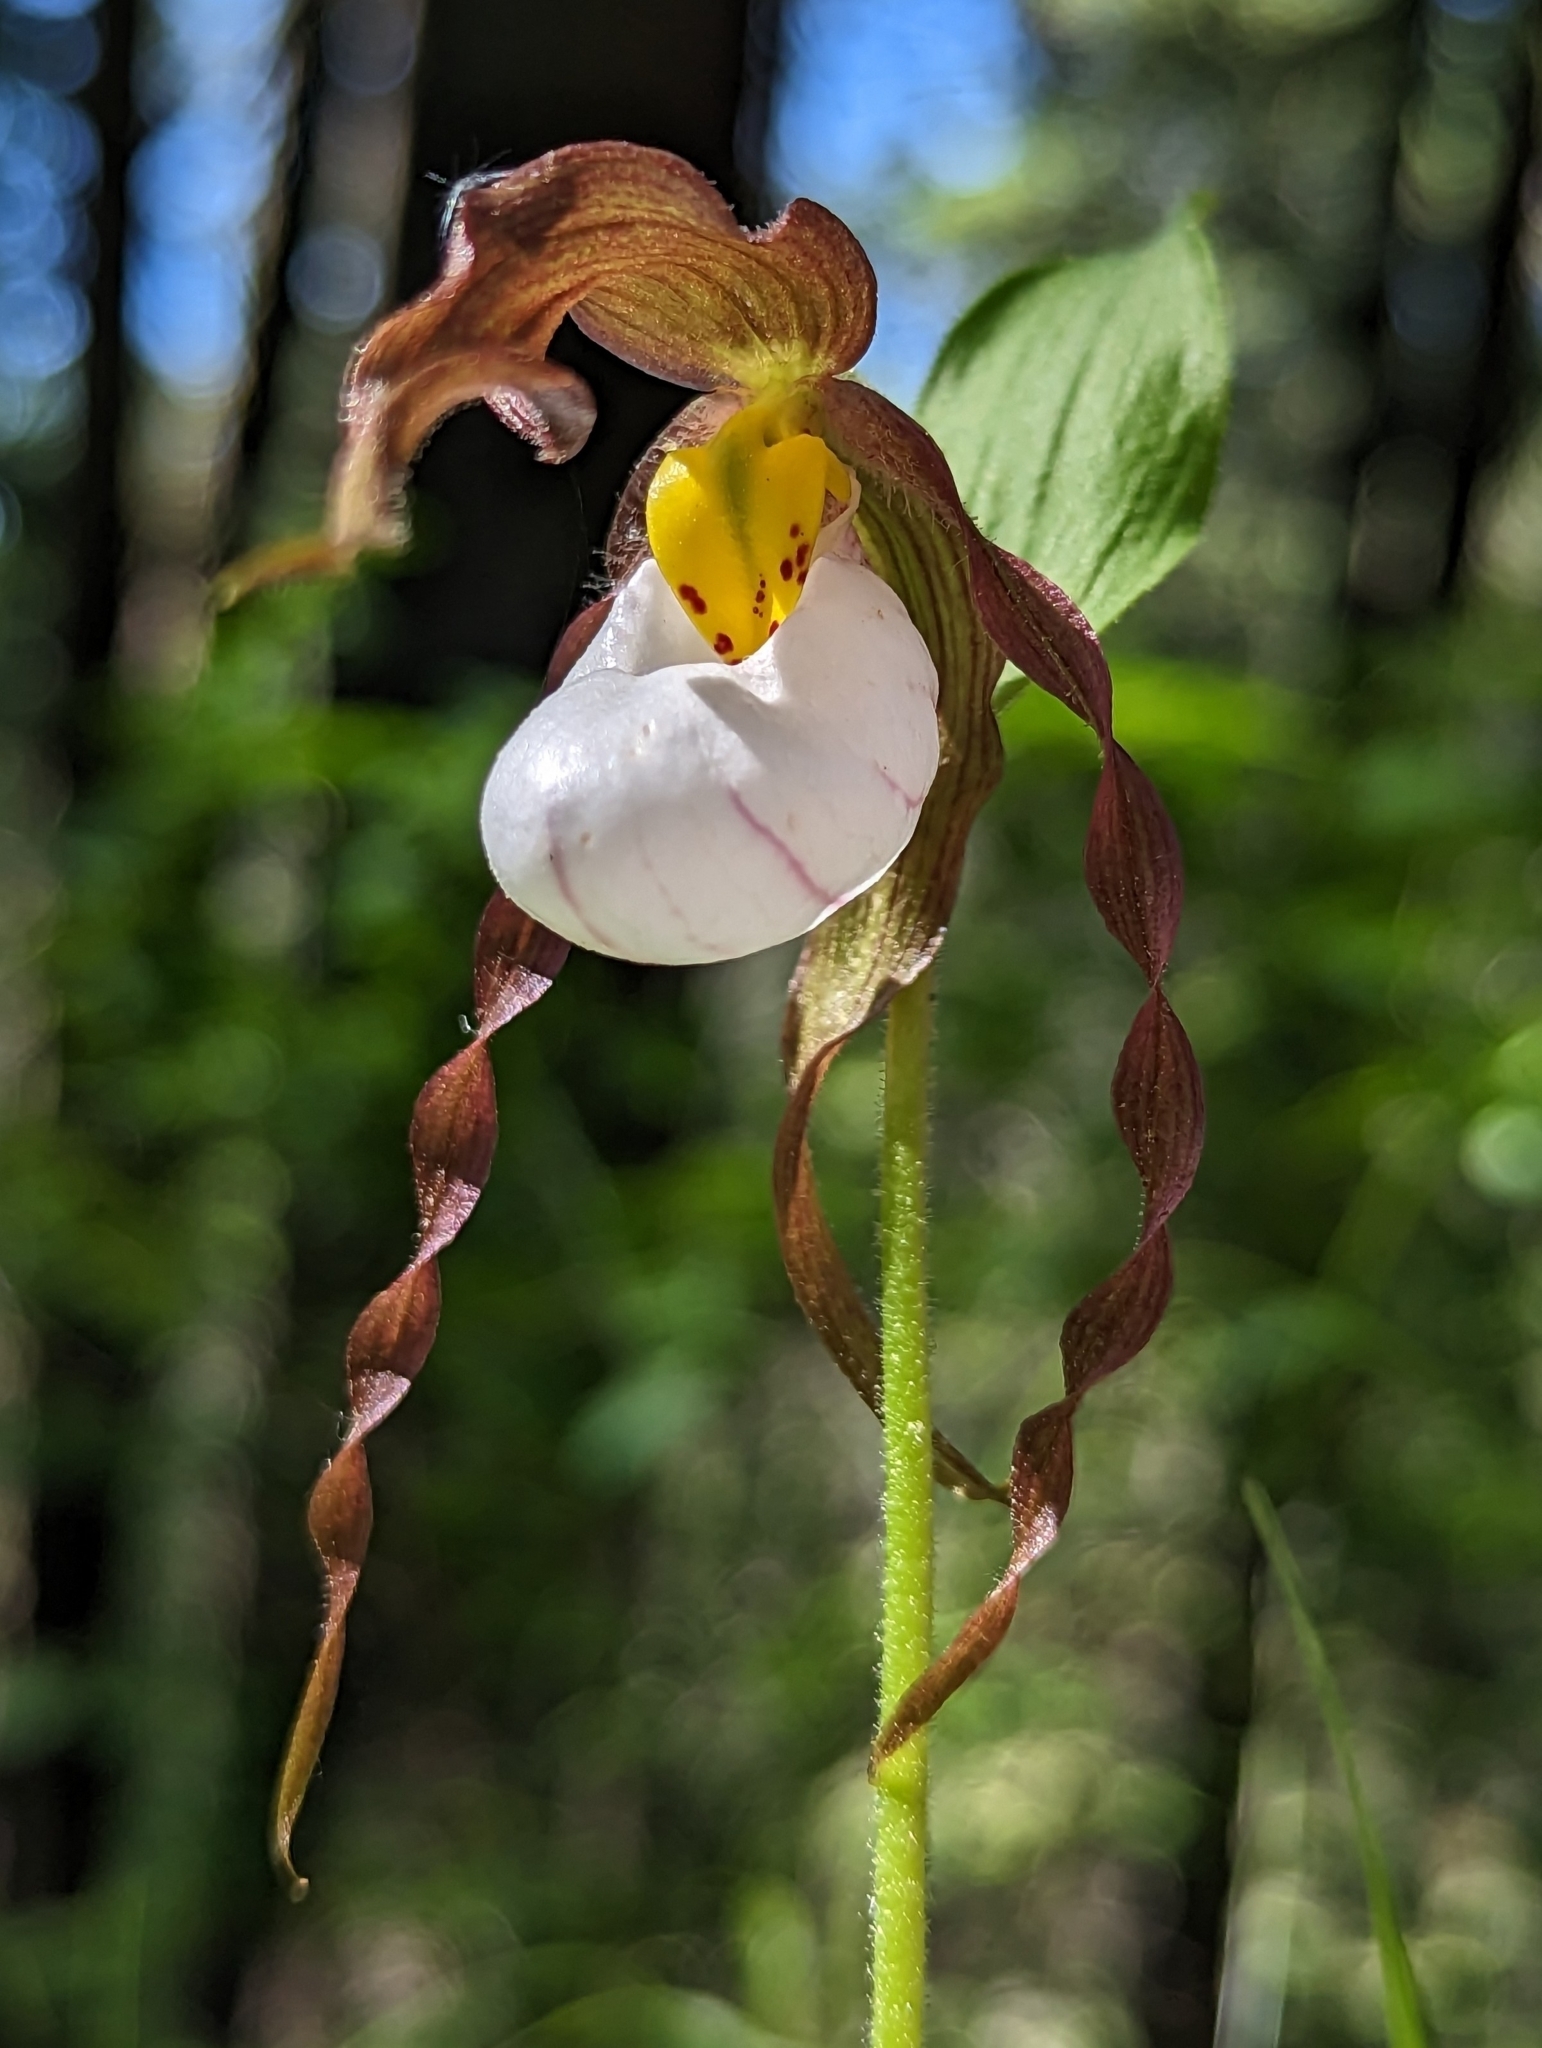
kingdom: Plantae
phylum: Tracheophyta
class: Liliopsida
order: Asparagales
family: Orchidaceae
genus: Cypripedium
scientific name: Cypripedium montanum
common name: Mountain lady's-slipper
